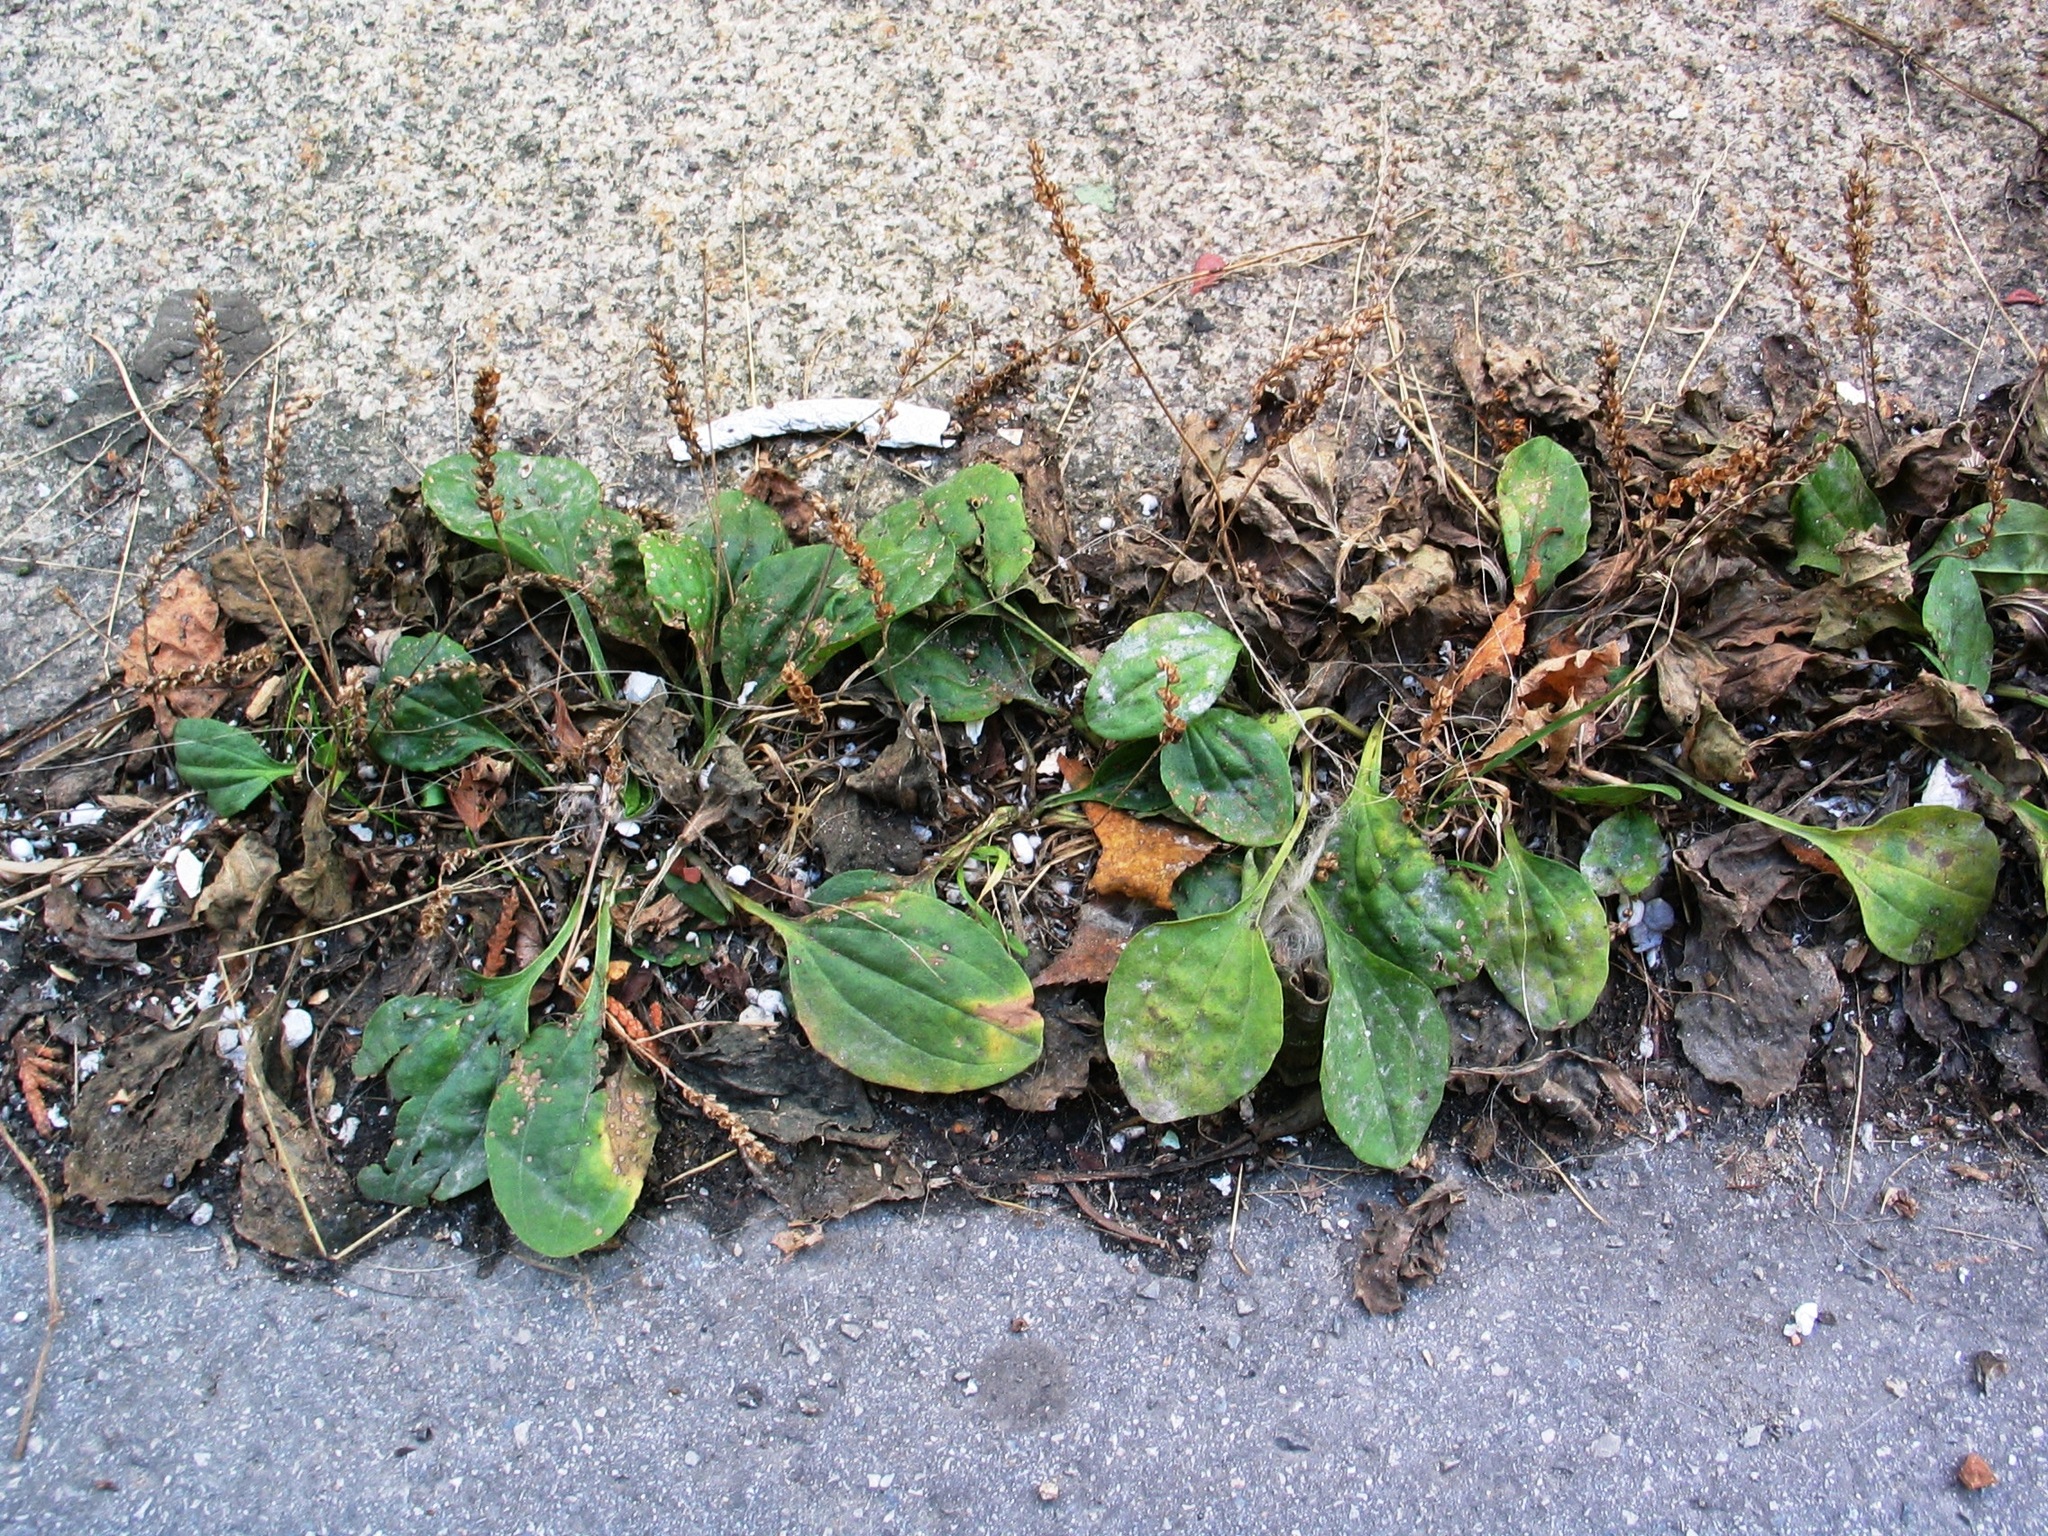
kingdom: Plantae
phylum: Tracheophyta
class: Magnoliopsida
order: Lamiales
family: Plantaginaceae
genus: Plantago
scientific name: Plantago major
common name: Common plantain
